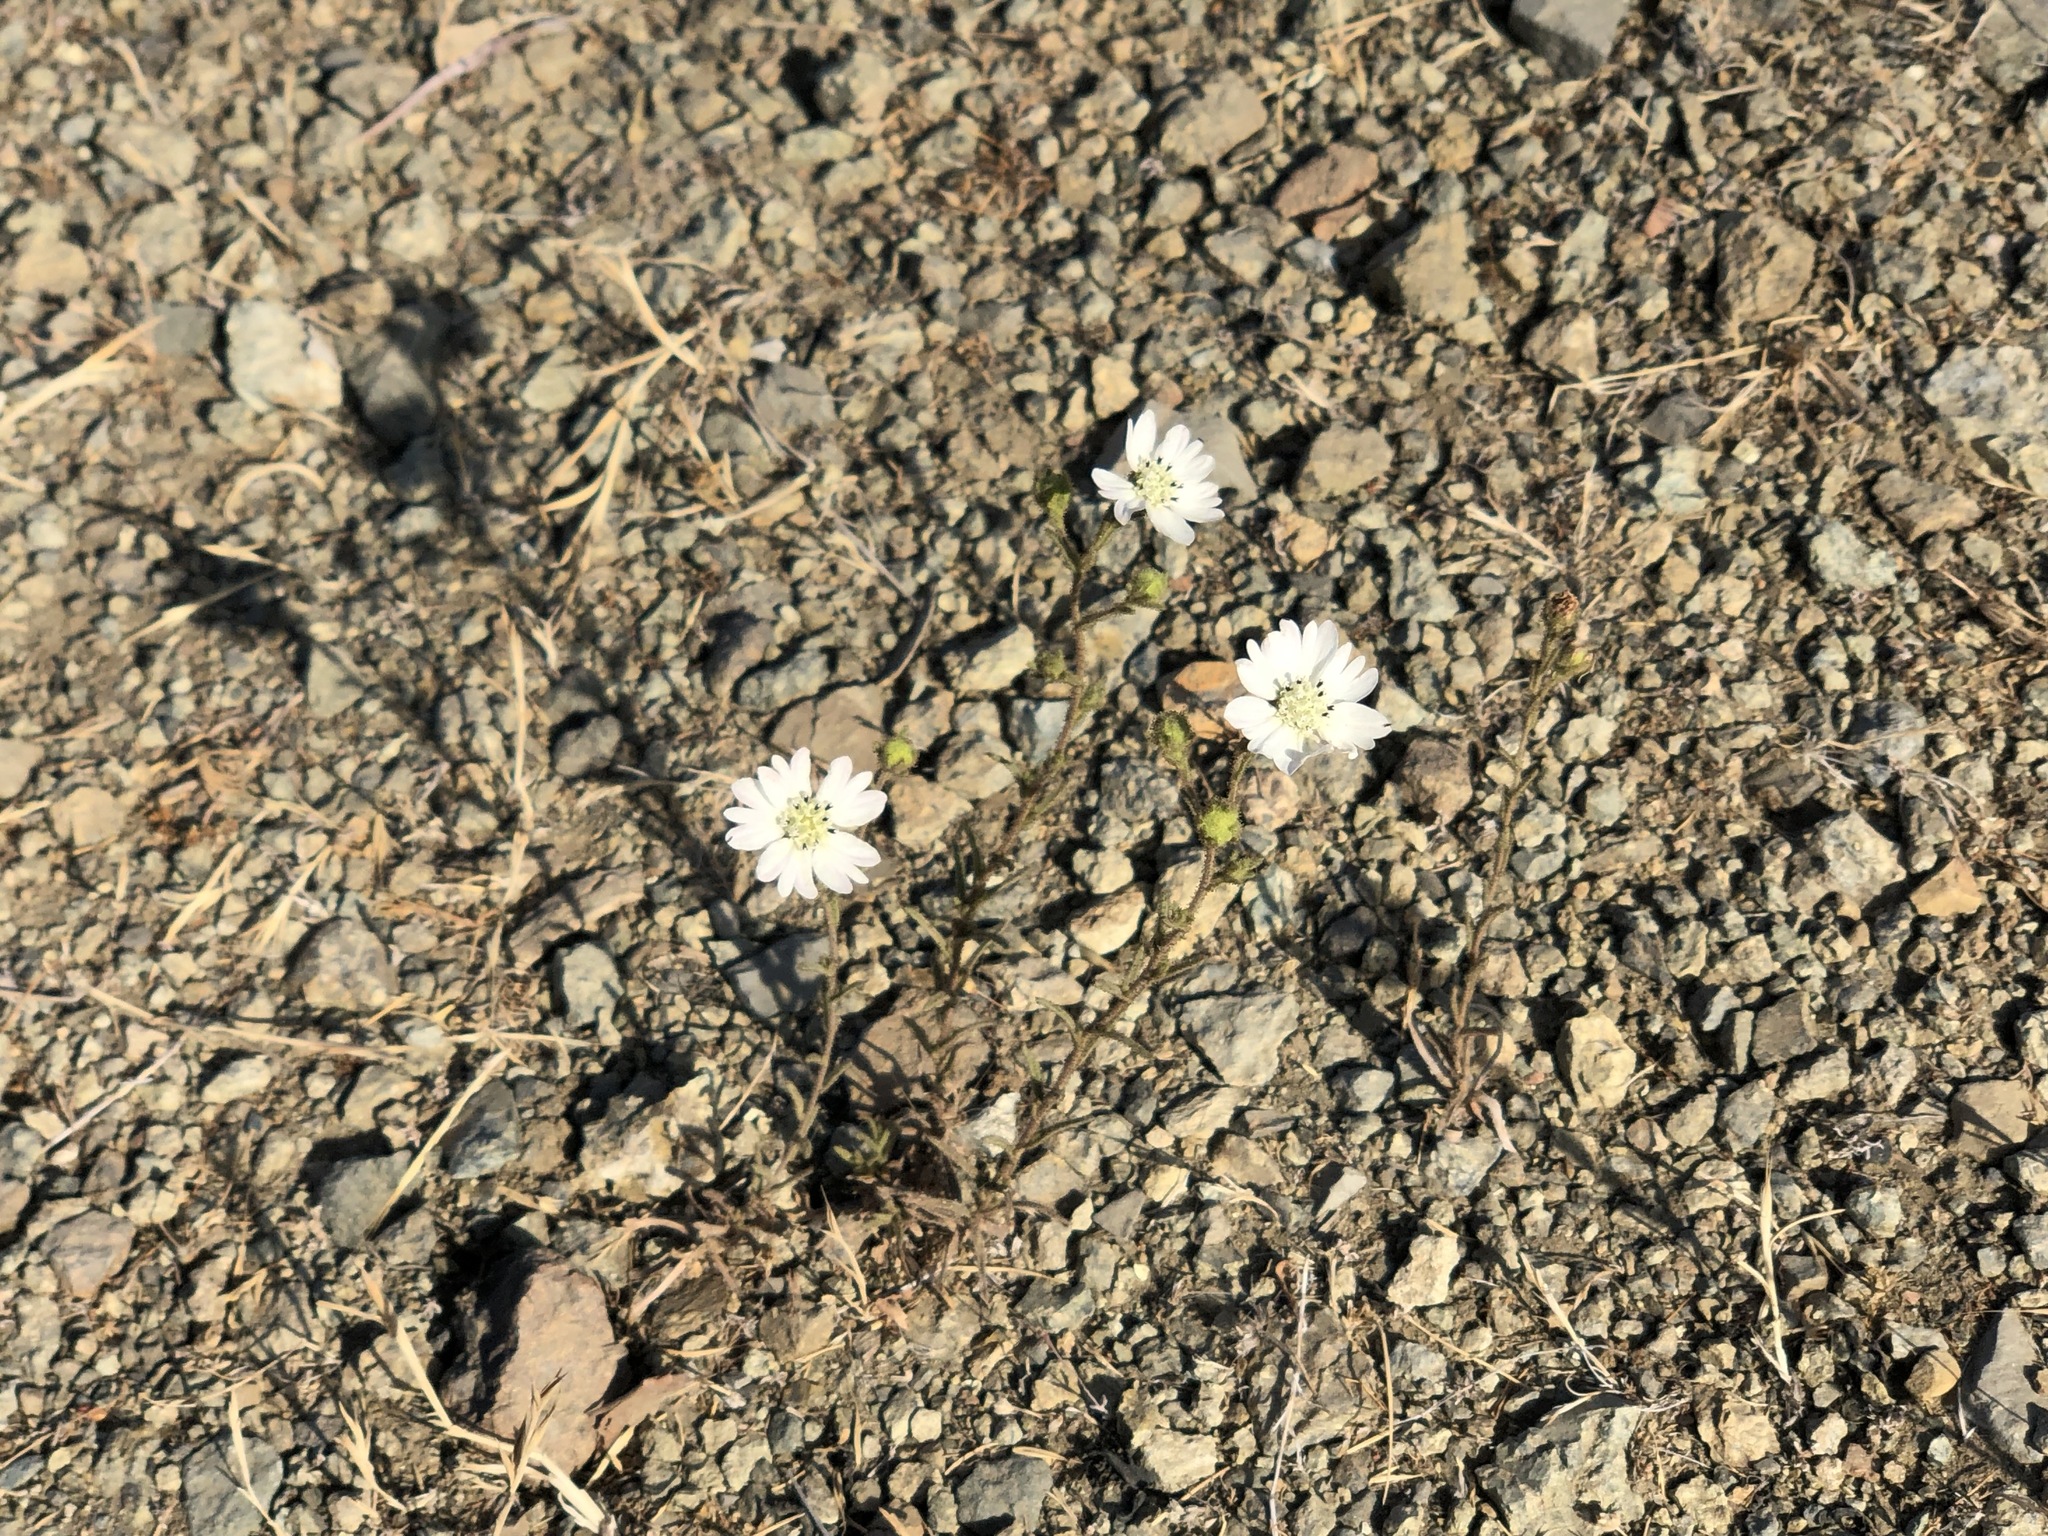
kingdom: Plantae
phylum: Tracheophyta
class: Magnoliopsida
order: Asterales
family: Asteraceae
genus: Hemizonia
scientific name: Hemizonia congesta
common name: Hayfield tarweed
